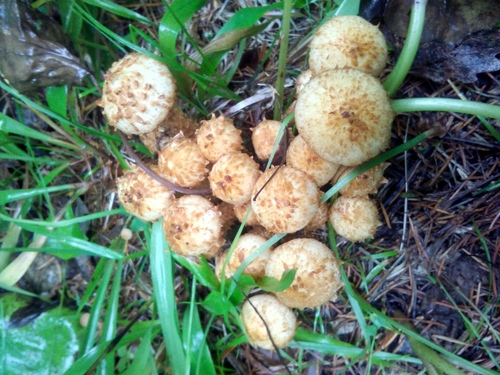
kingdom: Fungi
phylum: Basidiomycota
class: Agaricomycetes
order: Agaricales
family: Strophariaceae
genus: Pholiota
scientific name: Pholiota squarrosa
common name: Shaggy pholiota
